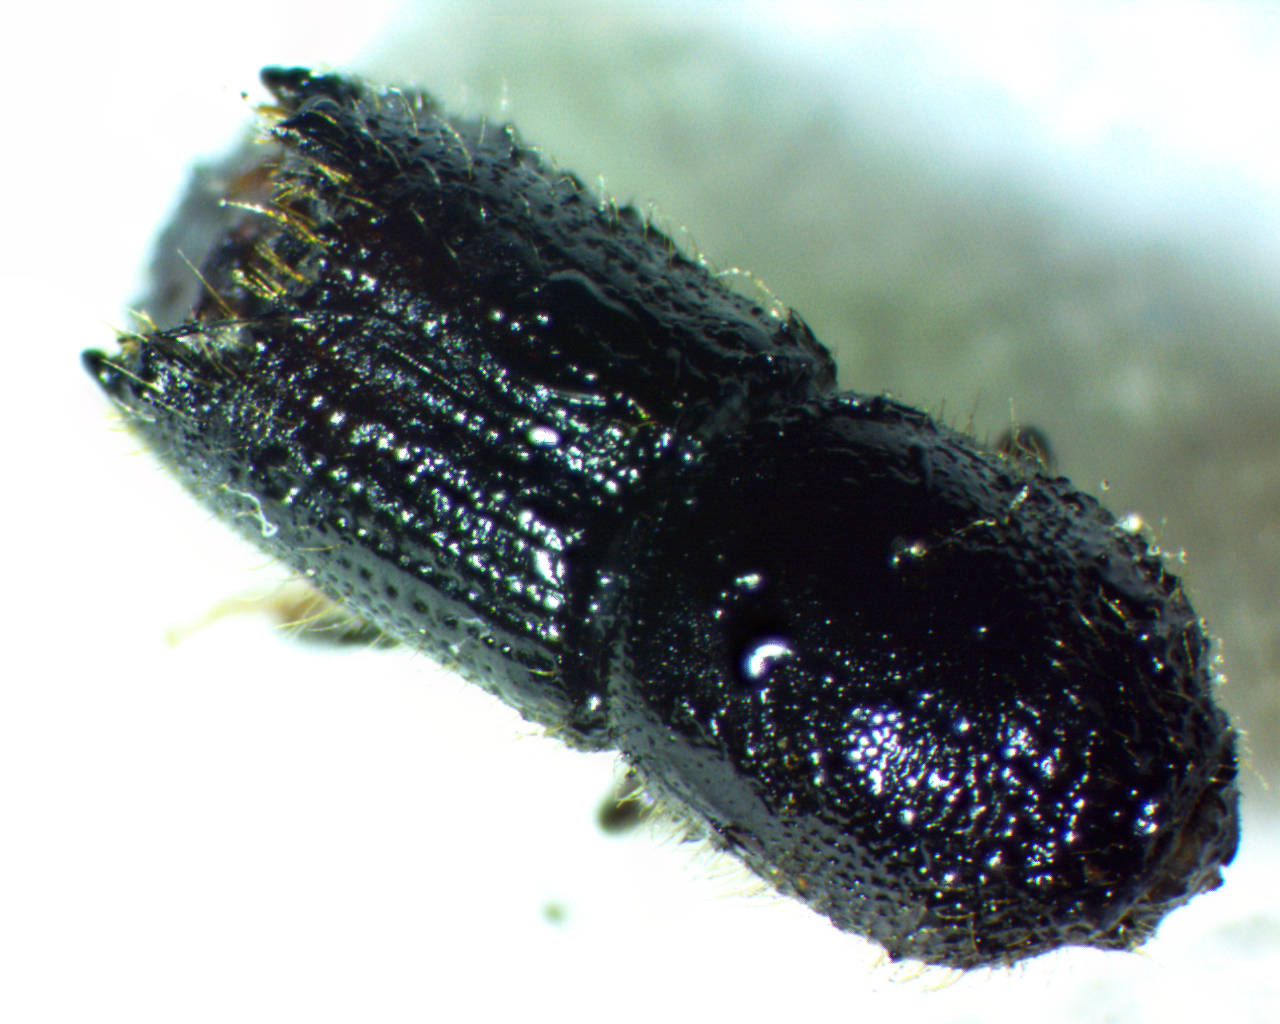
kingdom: Animalia
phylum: Arthropoda
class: Insecta
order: Coleoptera
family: Curculionidae
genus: Ips
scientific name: Ips calligraphus
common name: Coarsewriting engraver
